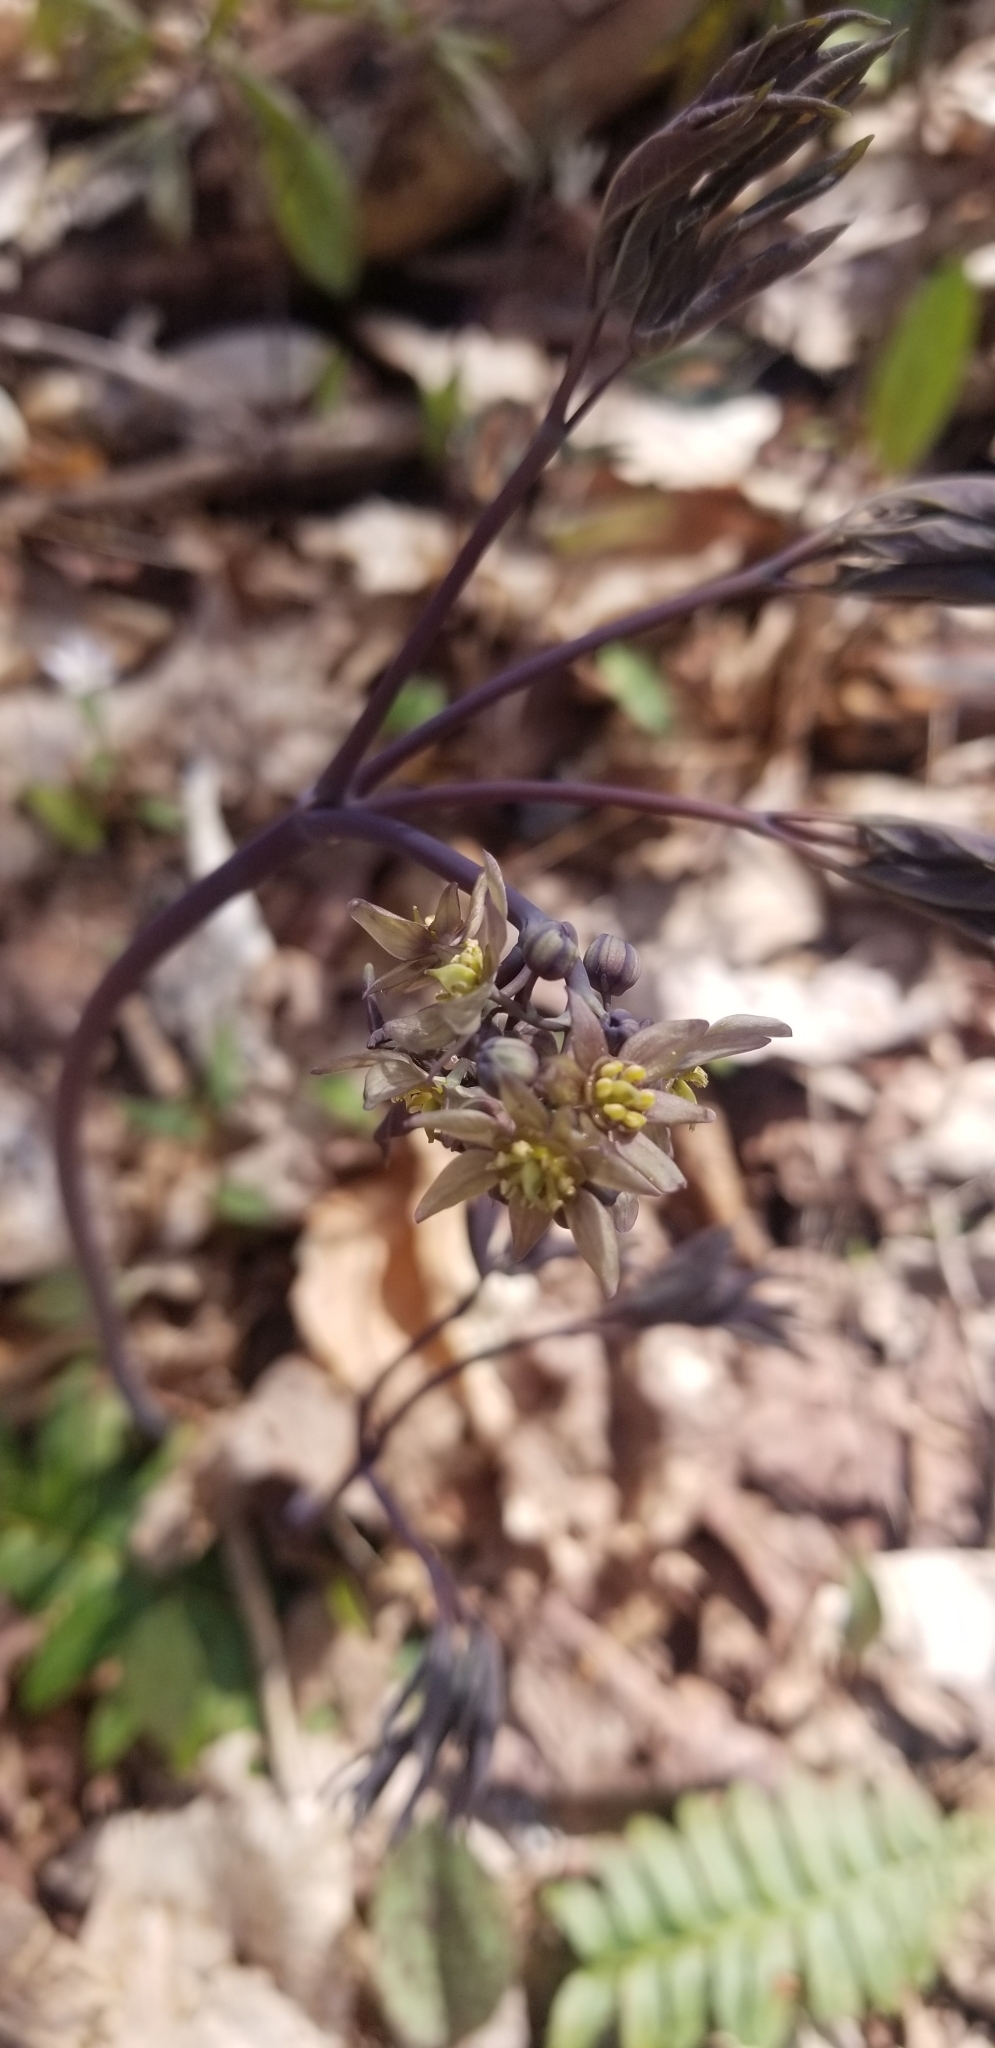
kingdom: Plantae
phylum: Tracheophyta
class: Magnoliopsida
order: Ranunculales
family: Berberidaceae
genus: Caulophyllum
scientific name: Caulophyllum giganteum
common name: Blue cohosh
